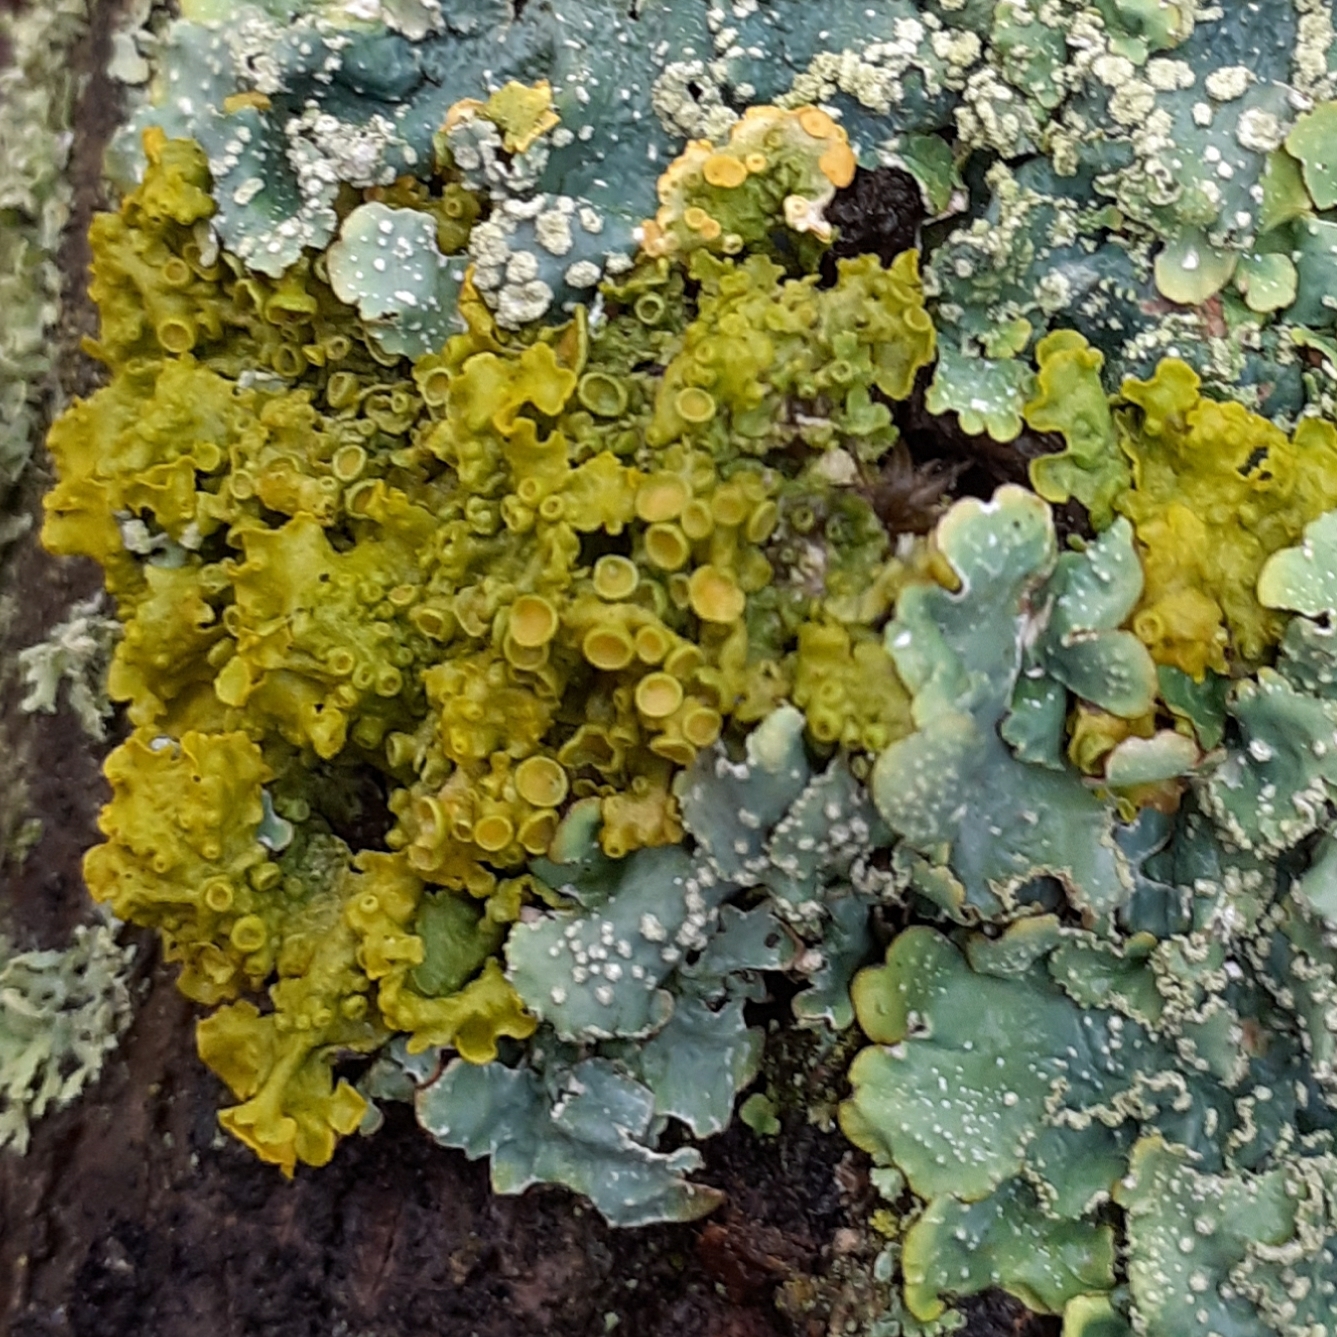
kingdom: Fungi
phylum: Ascomycota
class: Lecanoromycetes
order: Teloschistales
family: Teloschistaceae
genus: Xanthoria
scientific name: Xanthoria parietina
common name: Common orange lichen
